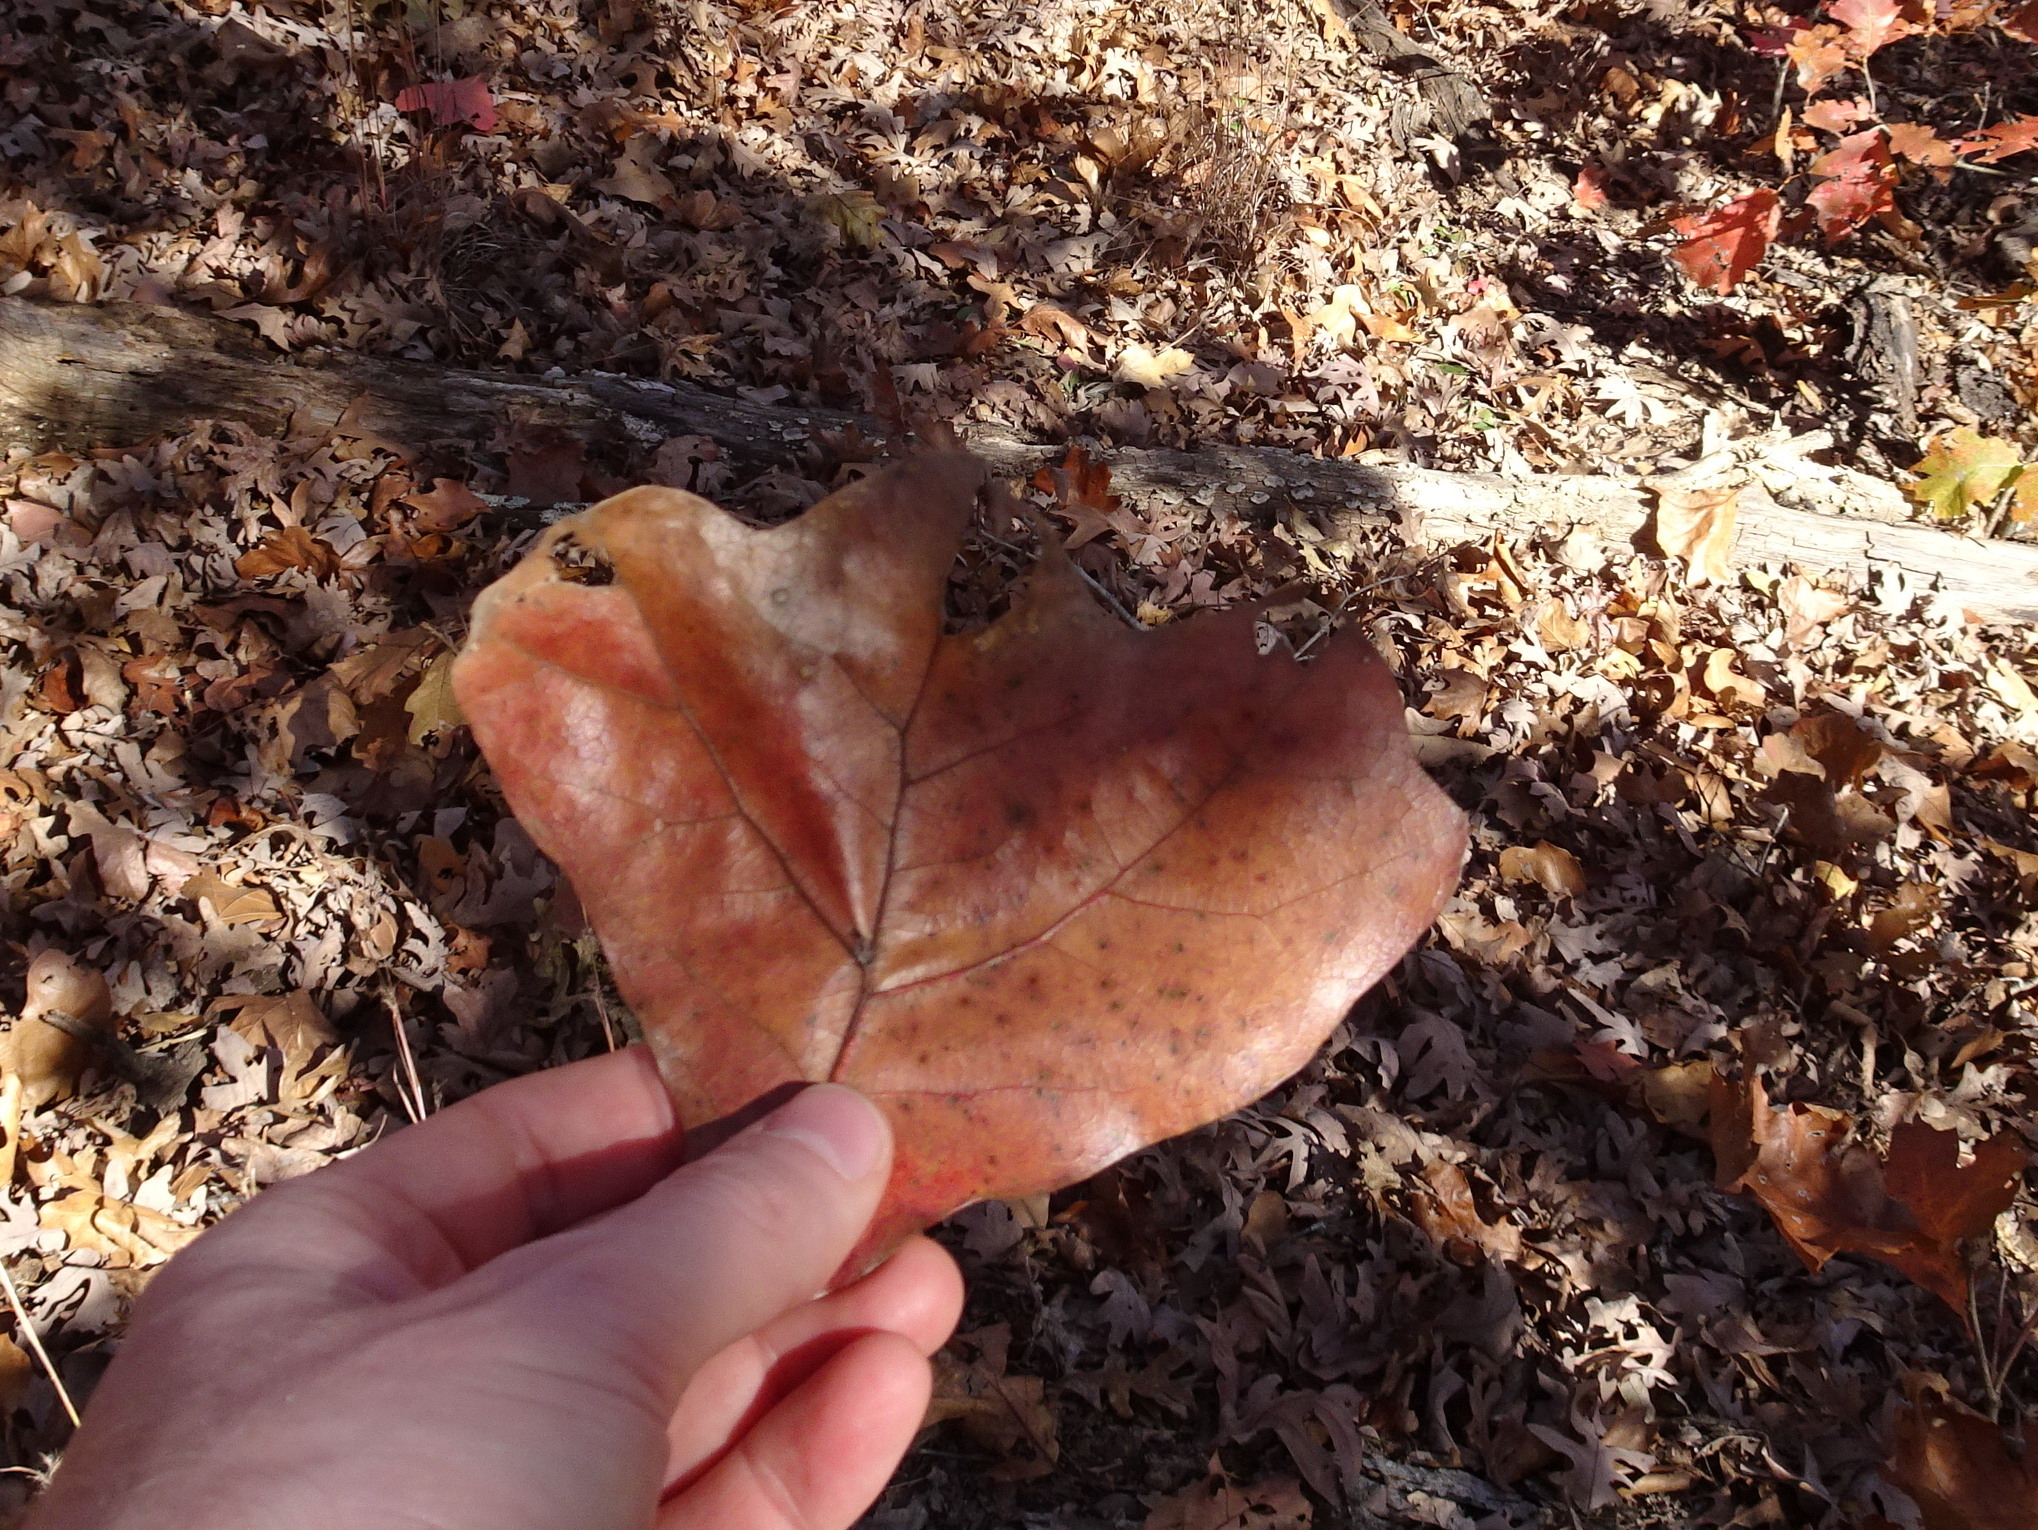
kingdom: Plantae
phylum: Tracheophyta
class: Magnoliopsida
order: Fagales
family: Fagaceae
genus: Quercus
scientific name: Quercus marilandica
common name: Blackjack oak
